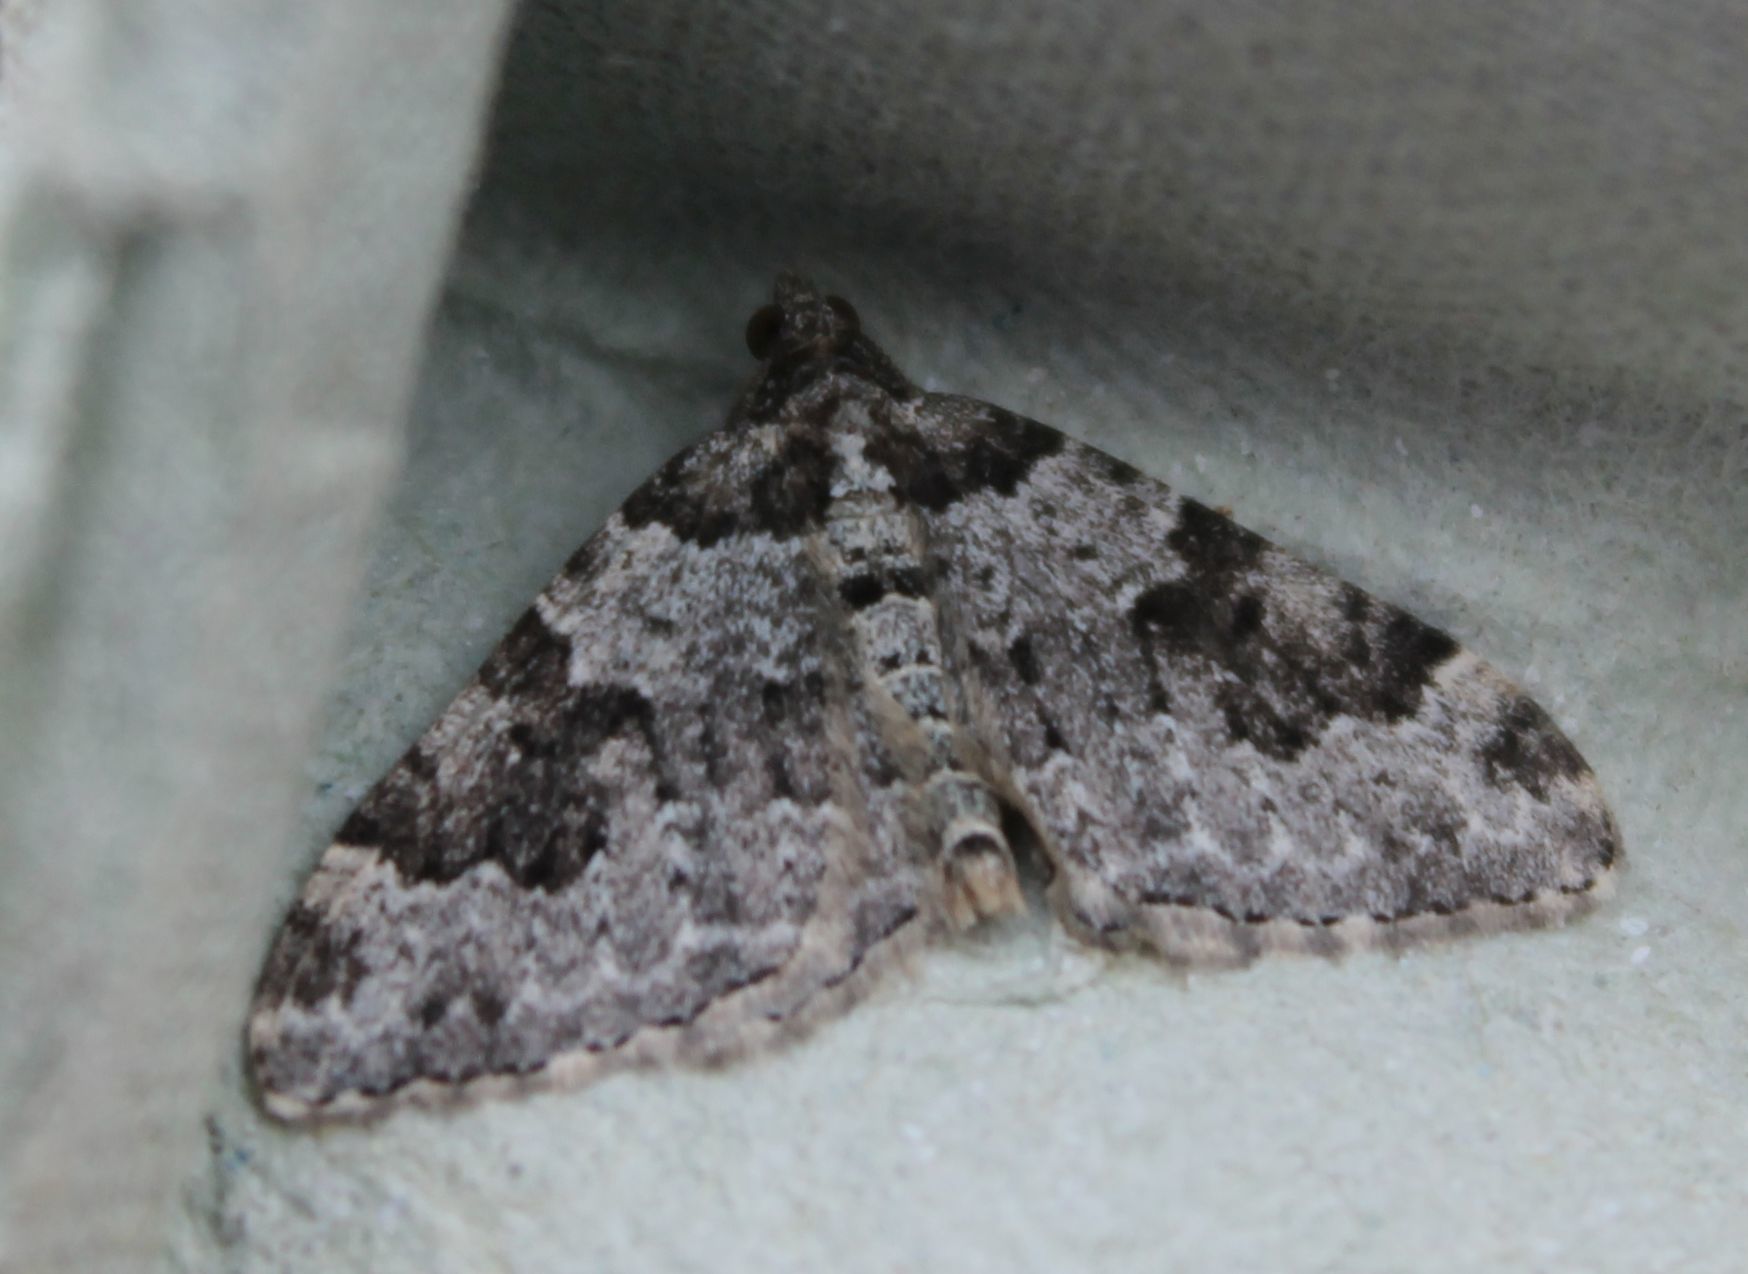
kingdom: Animalia
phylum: Arthropoda
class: Insecta
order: Lepidoptera
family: Geometridae
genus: Xanthorhoe
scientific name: Xanthorhoe fluctuata
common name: Garden carpet
